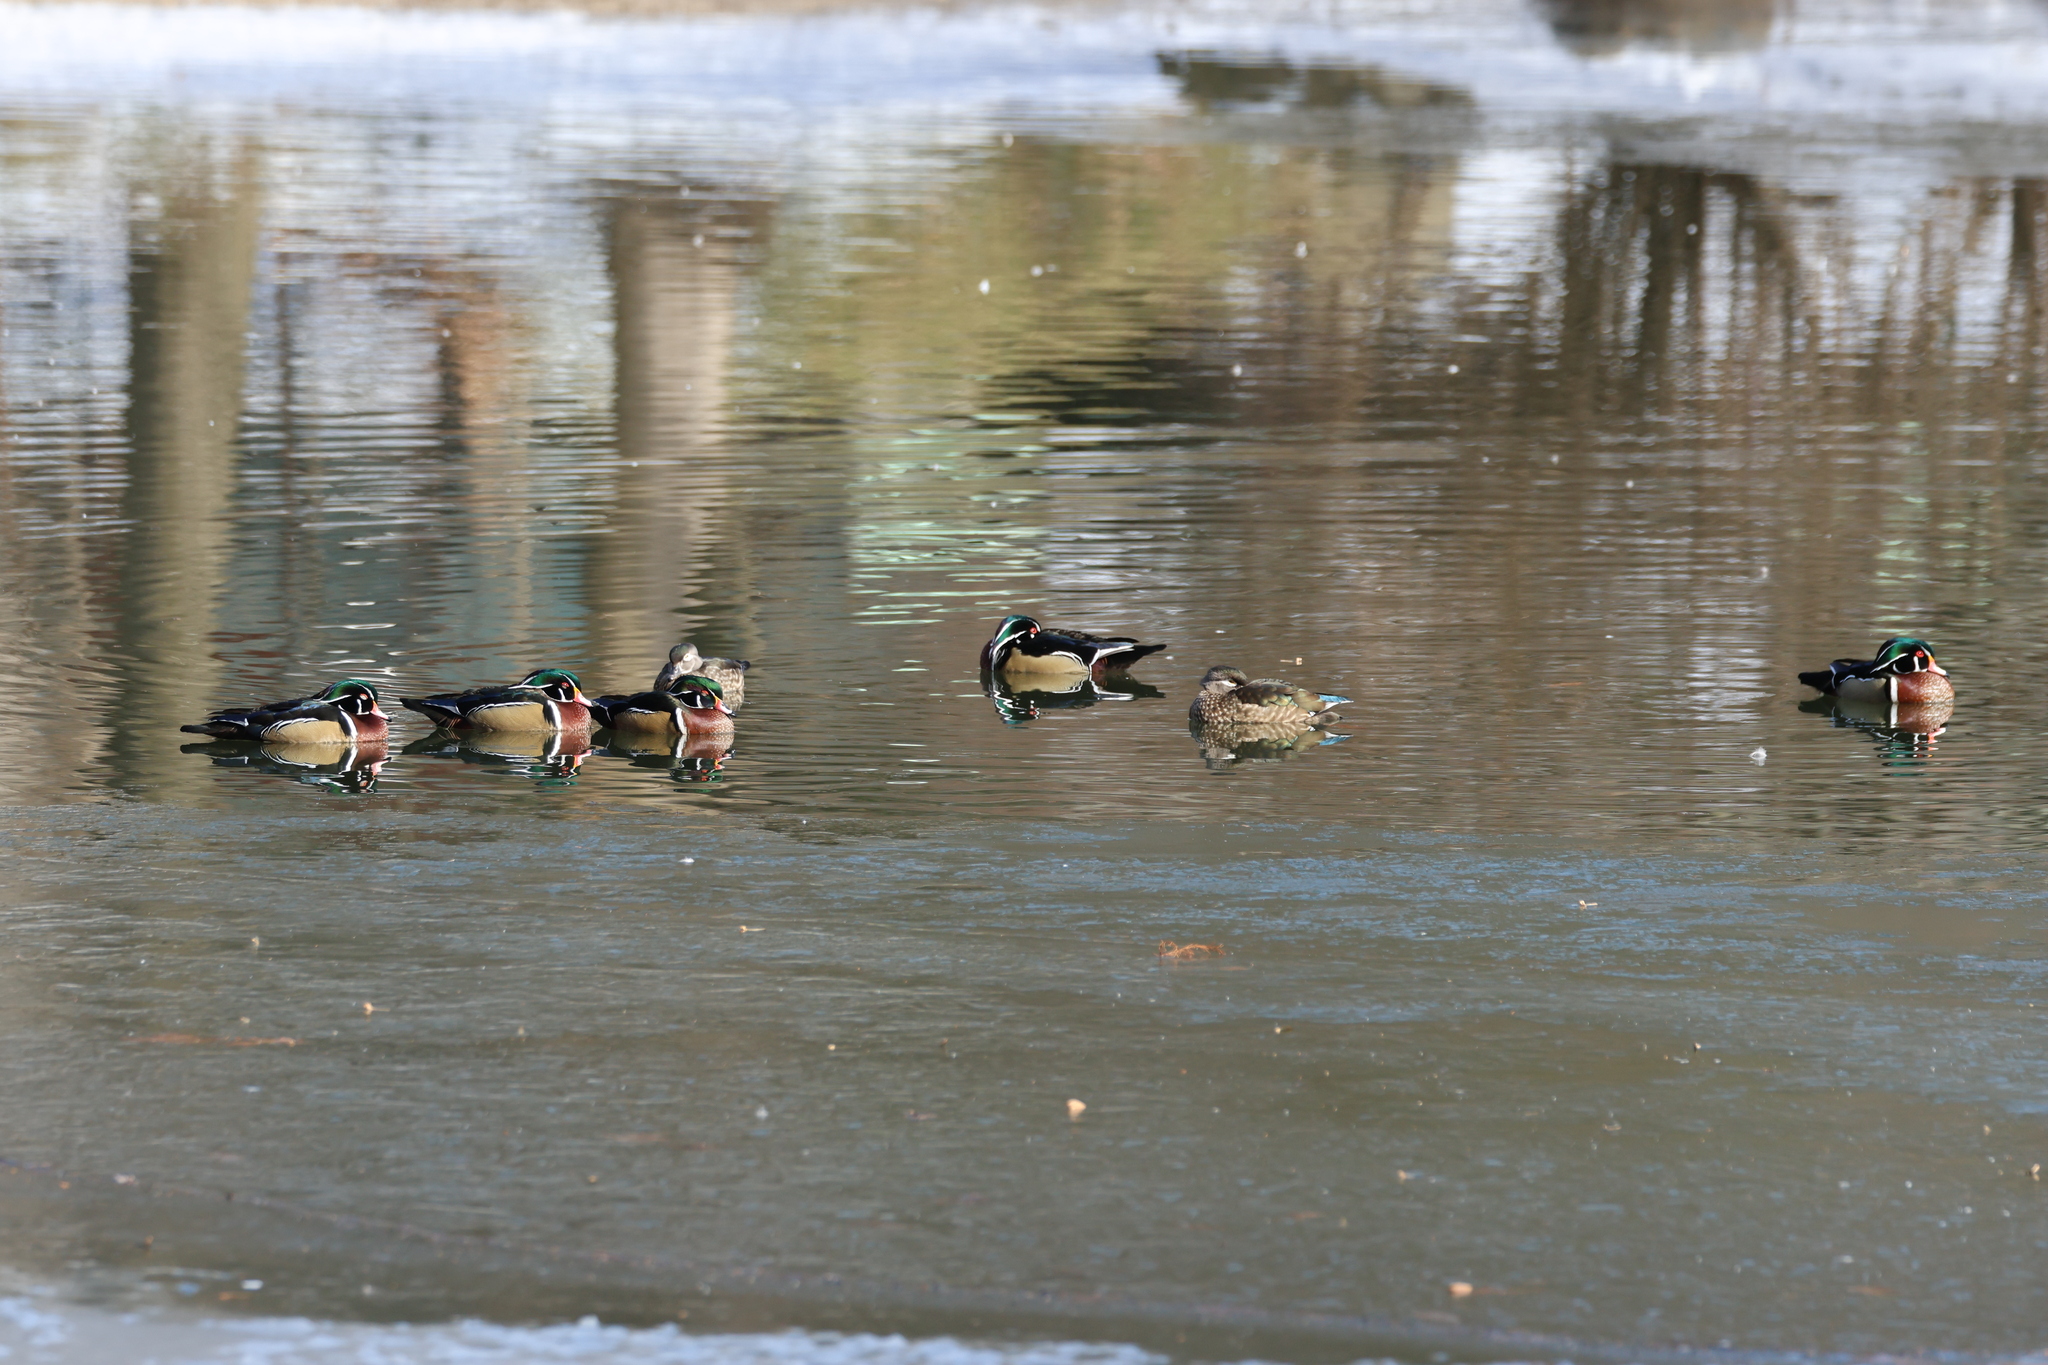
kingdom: Animalia
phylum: Chordata
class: Aves
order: Anseriformes
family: Anatidae
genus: Aix
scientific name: Aix sponsa
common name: Wood duck
